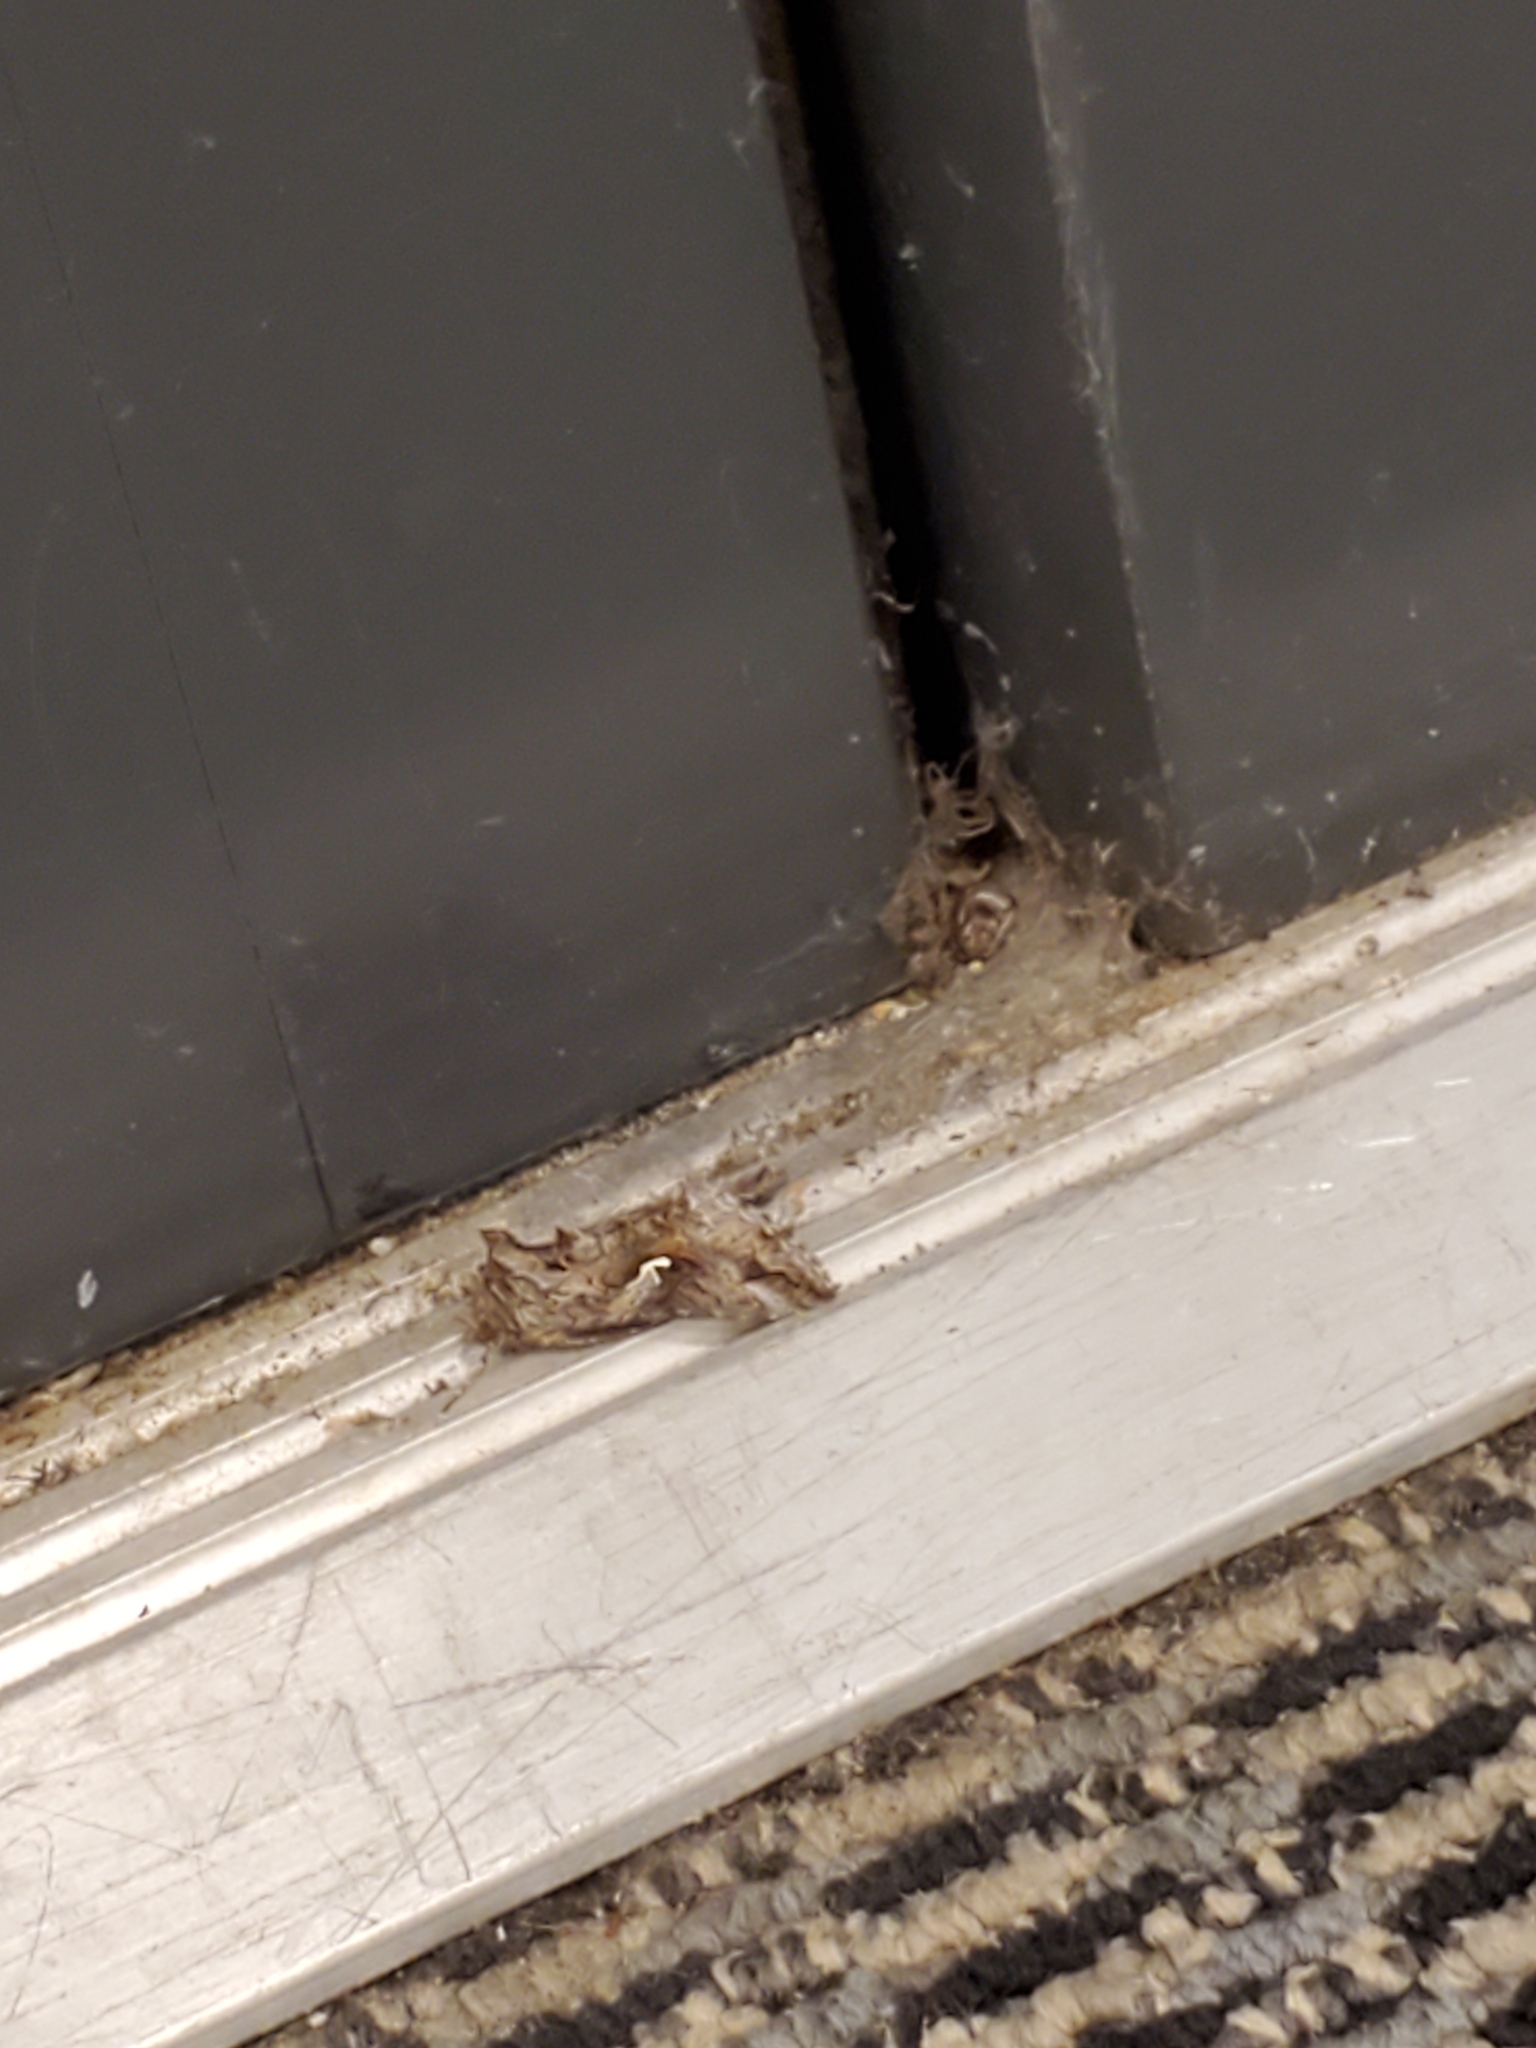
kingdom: Animalia
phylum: Arthropoda
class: Insecta
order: Lepidoptera
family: Noctuidae
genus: Autographa
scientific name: Autographa californica
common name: Alfalfa looper
